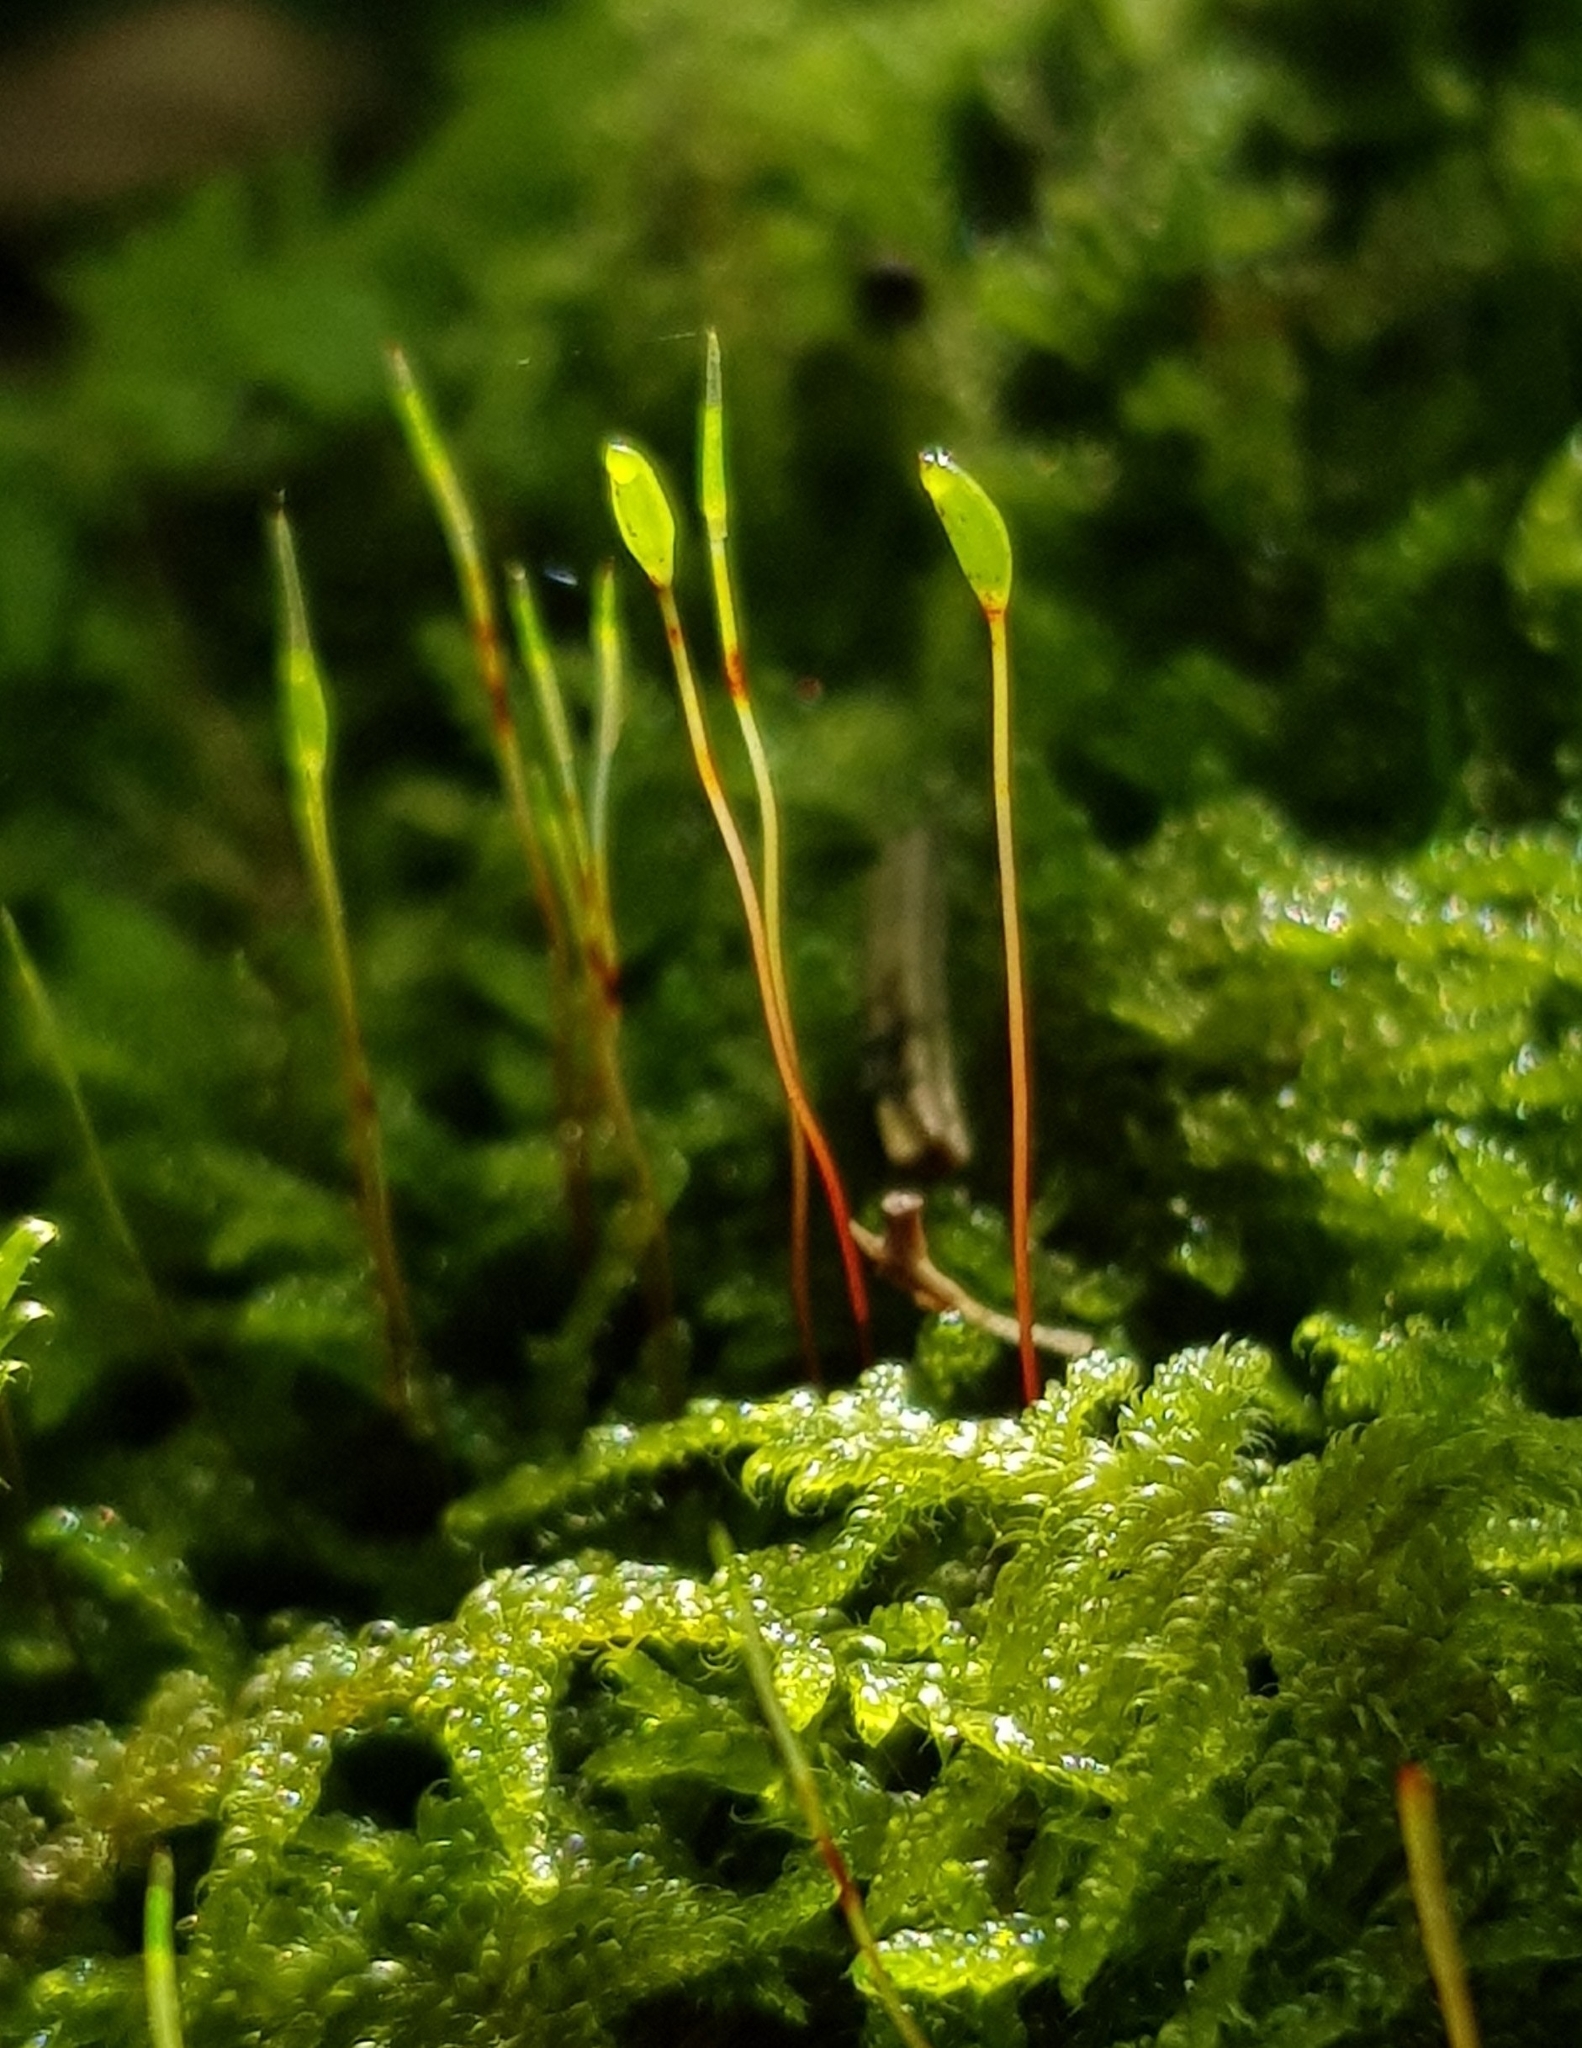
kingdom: Plantae
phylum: Bryophyta
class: Bryopsida
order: Hypnales
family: Hypnaceae
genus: Hypnum
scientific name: Hypnum andoi
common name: Ando's plait moss
